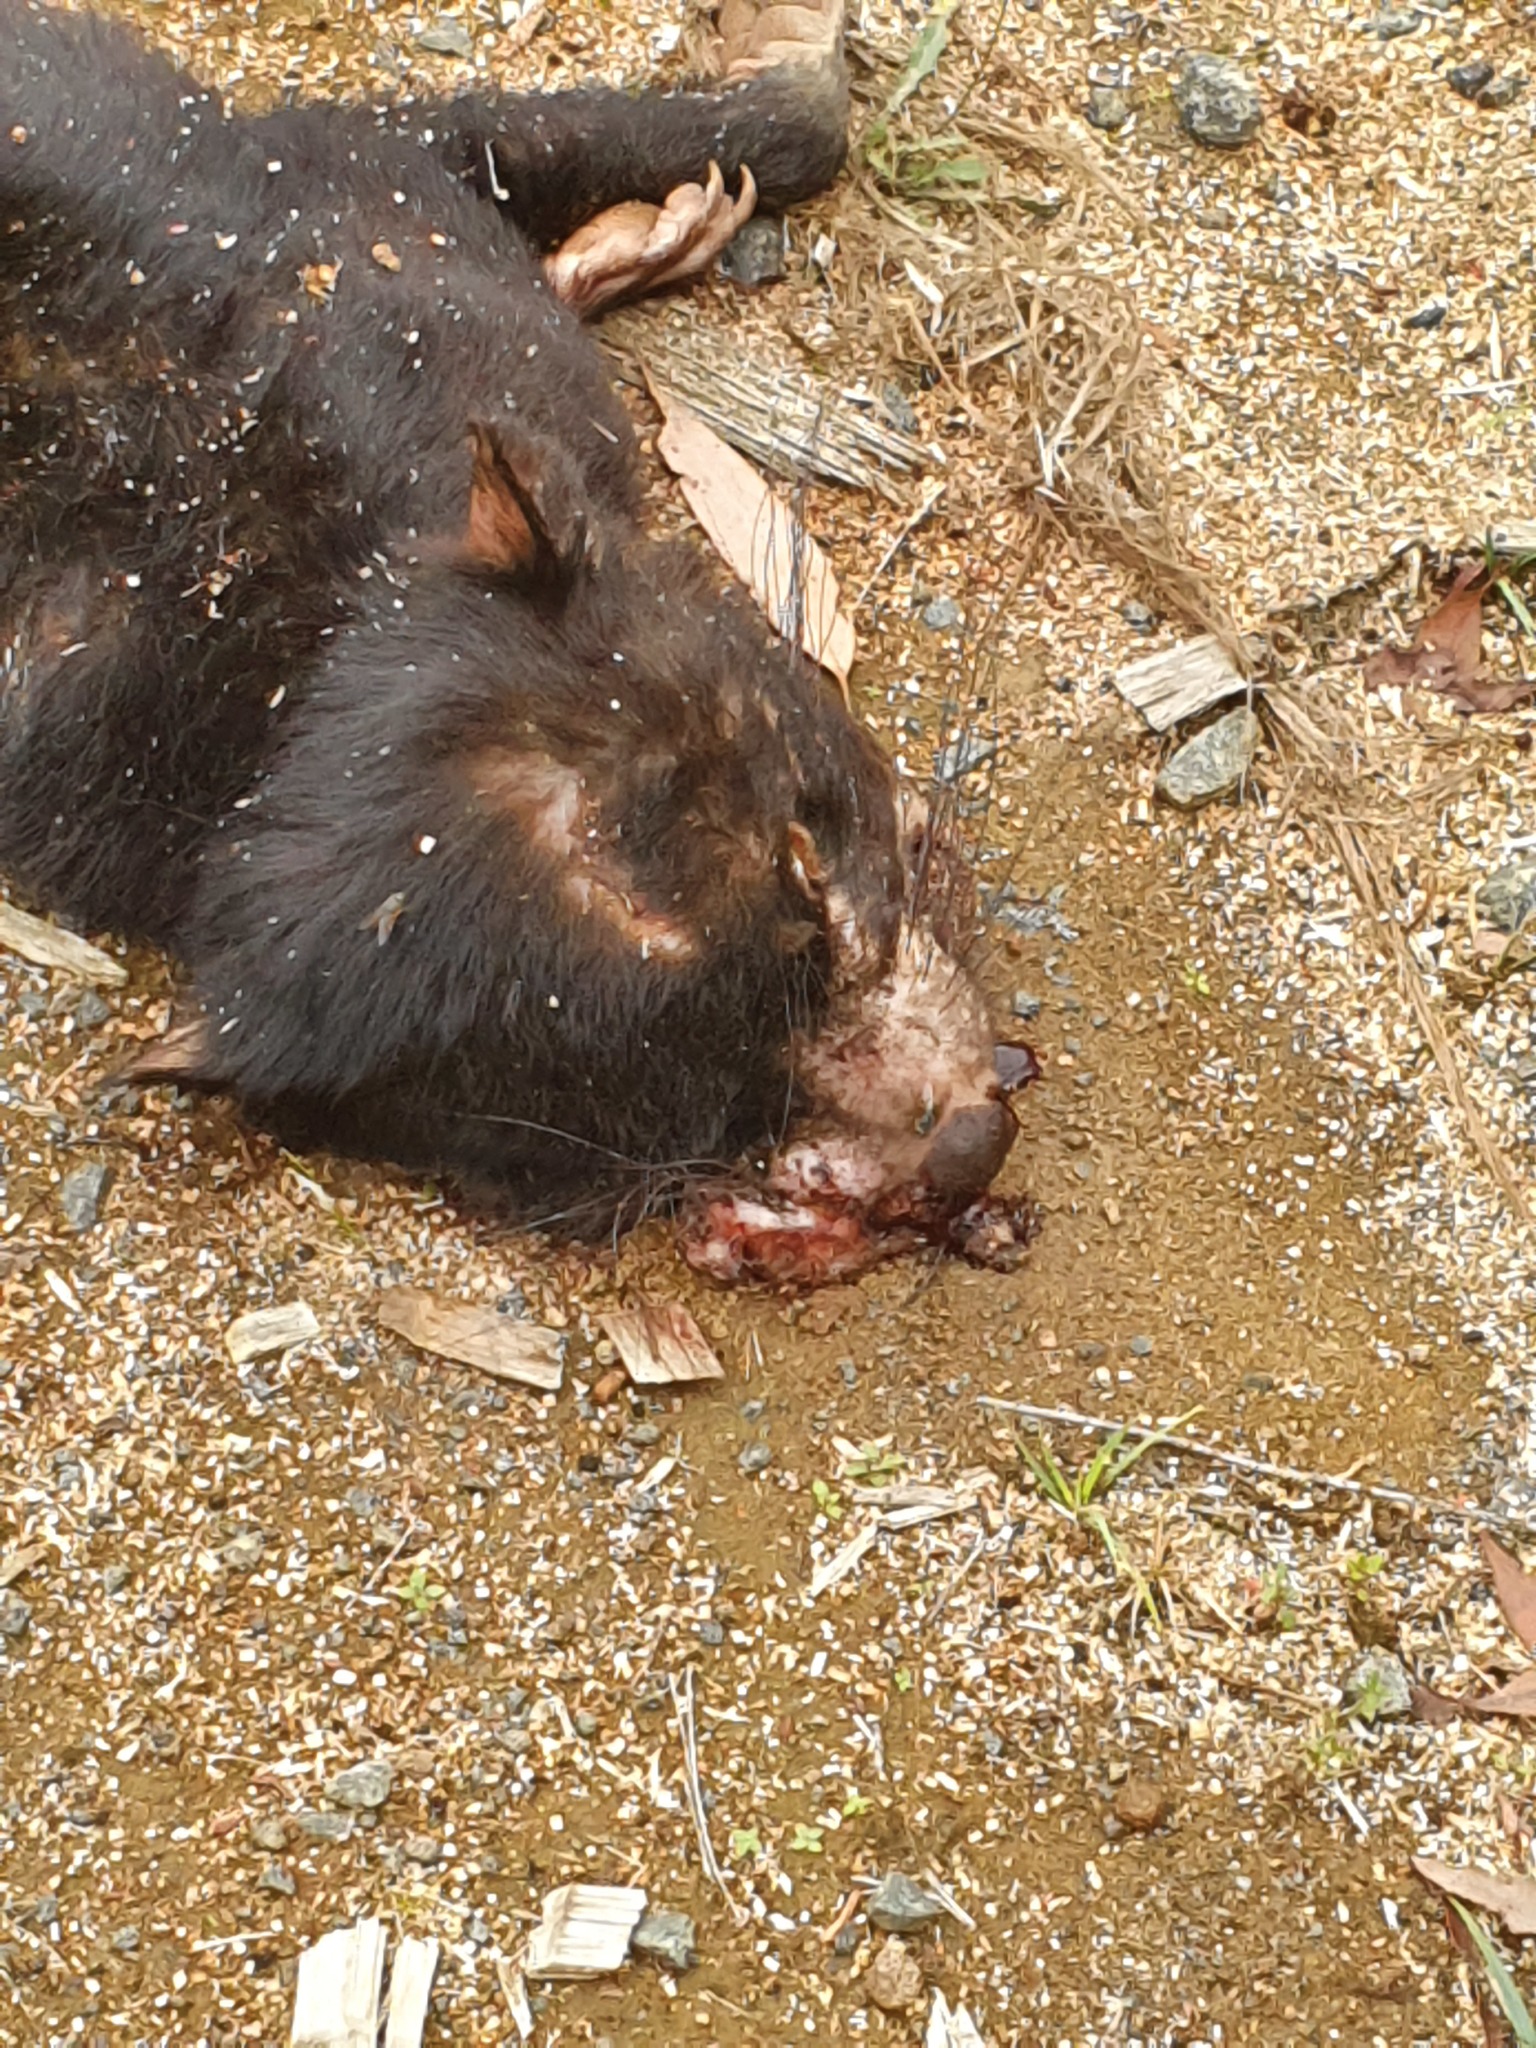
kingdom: Animalia
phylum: Chordata
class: Mammalia
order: Dasyuromorphia
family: Dasyuridae
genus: Sarcophilus
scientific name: Sarcophilus harrisii
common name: Tasmanian devil
